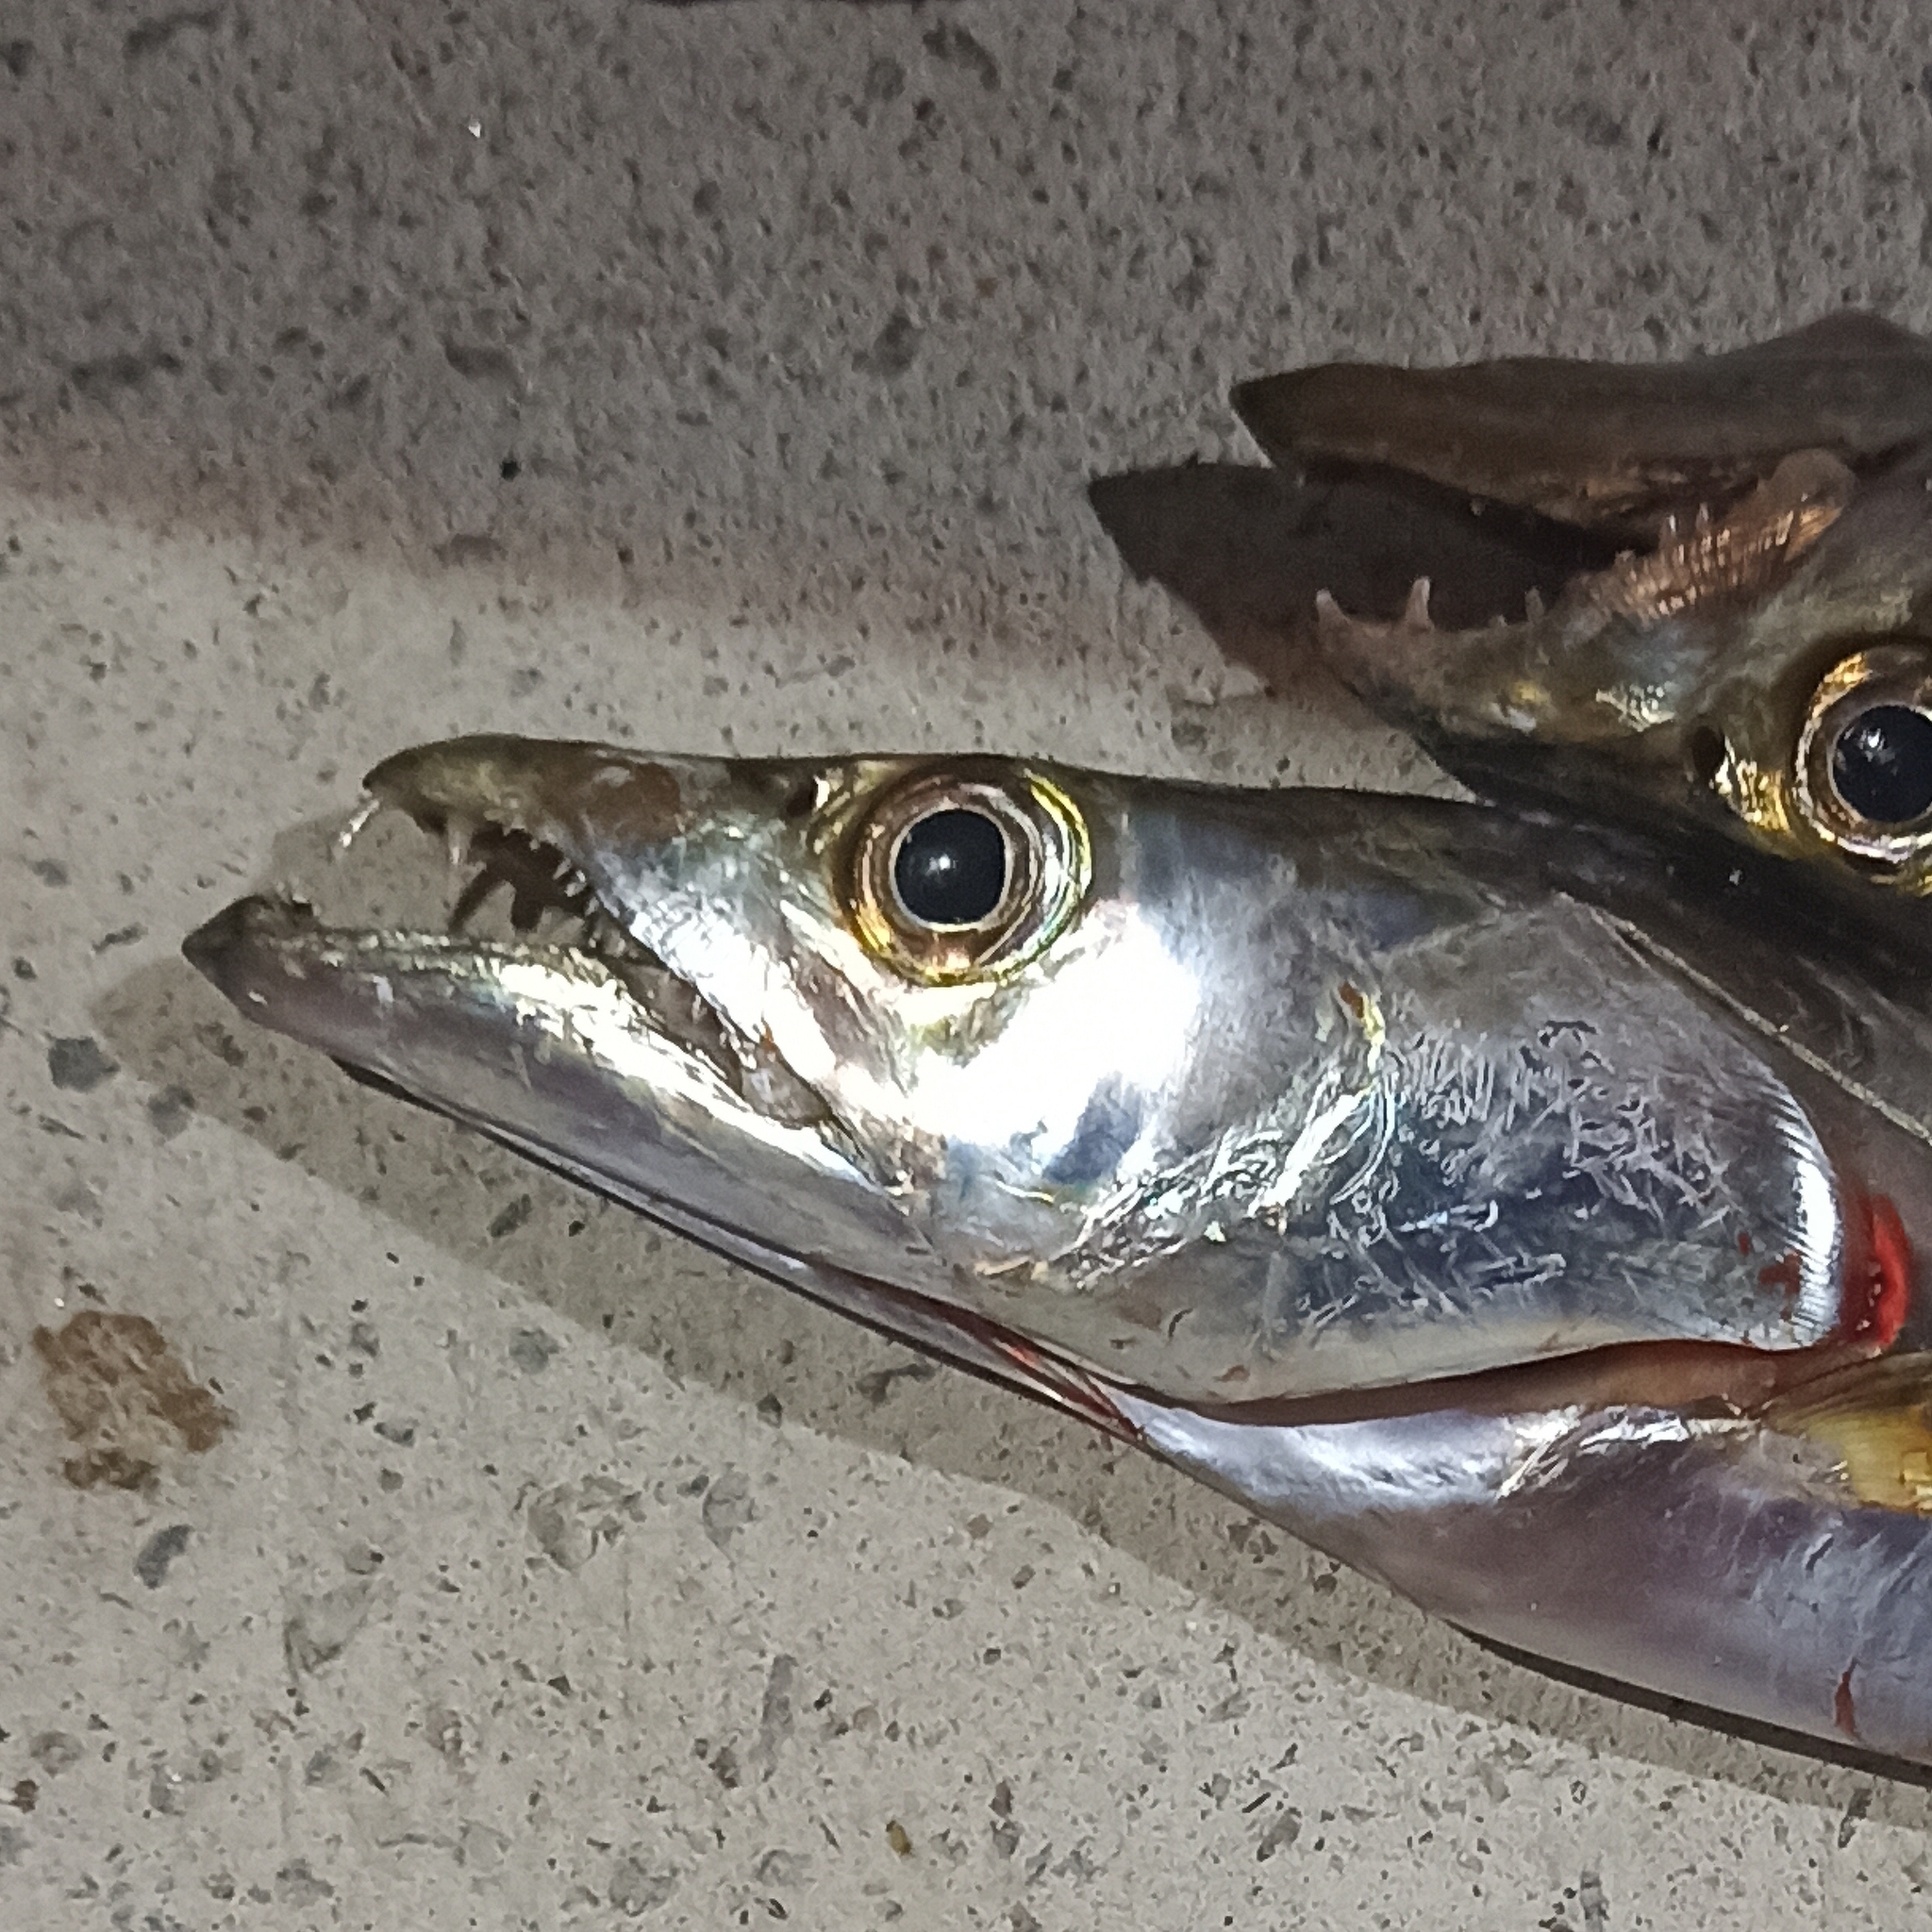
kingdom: Animalia
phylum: Chordata
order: Perciformes
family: Trichiuridae
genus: Trichiurus
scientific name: Trichiurus lepturus
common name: Largehead hairtail
